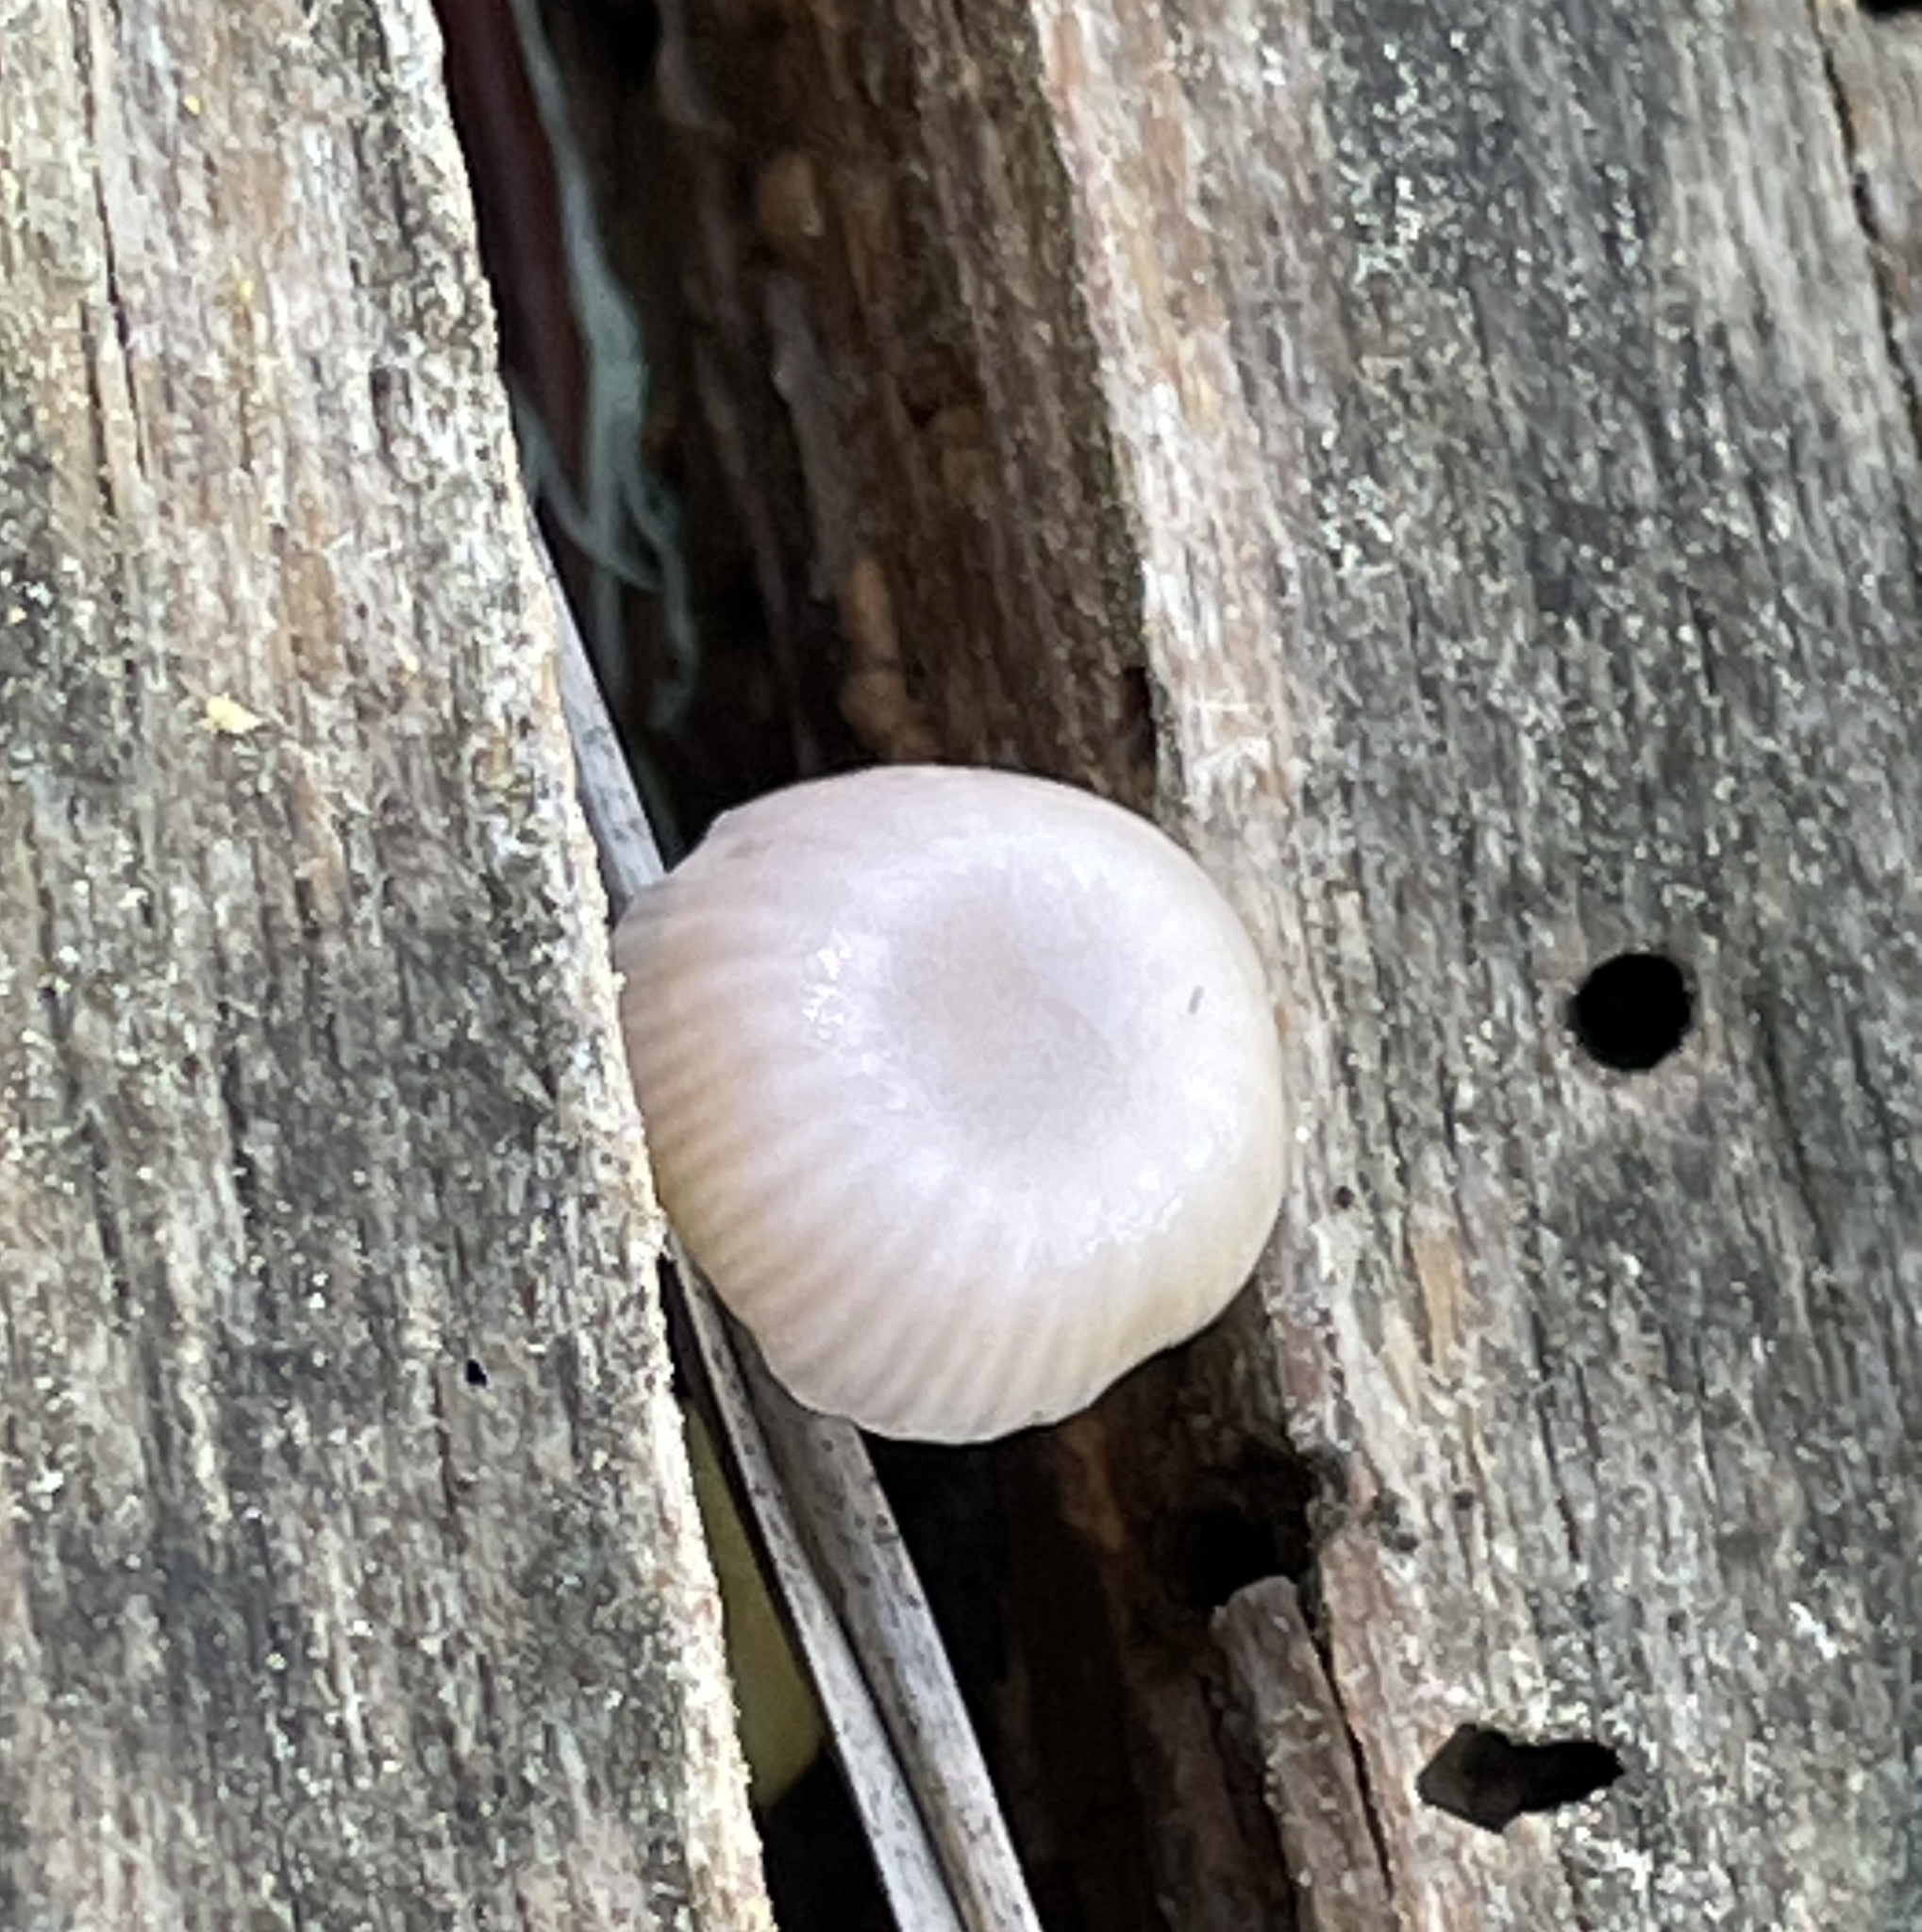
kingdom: Fungi
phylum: Basidiomycota
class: Agaricomycetes
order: Agaricales
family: Hygrophoraceae
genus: Chromosera
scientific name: Chromosera cyanophylla
